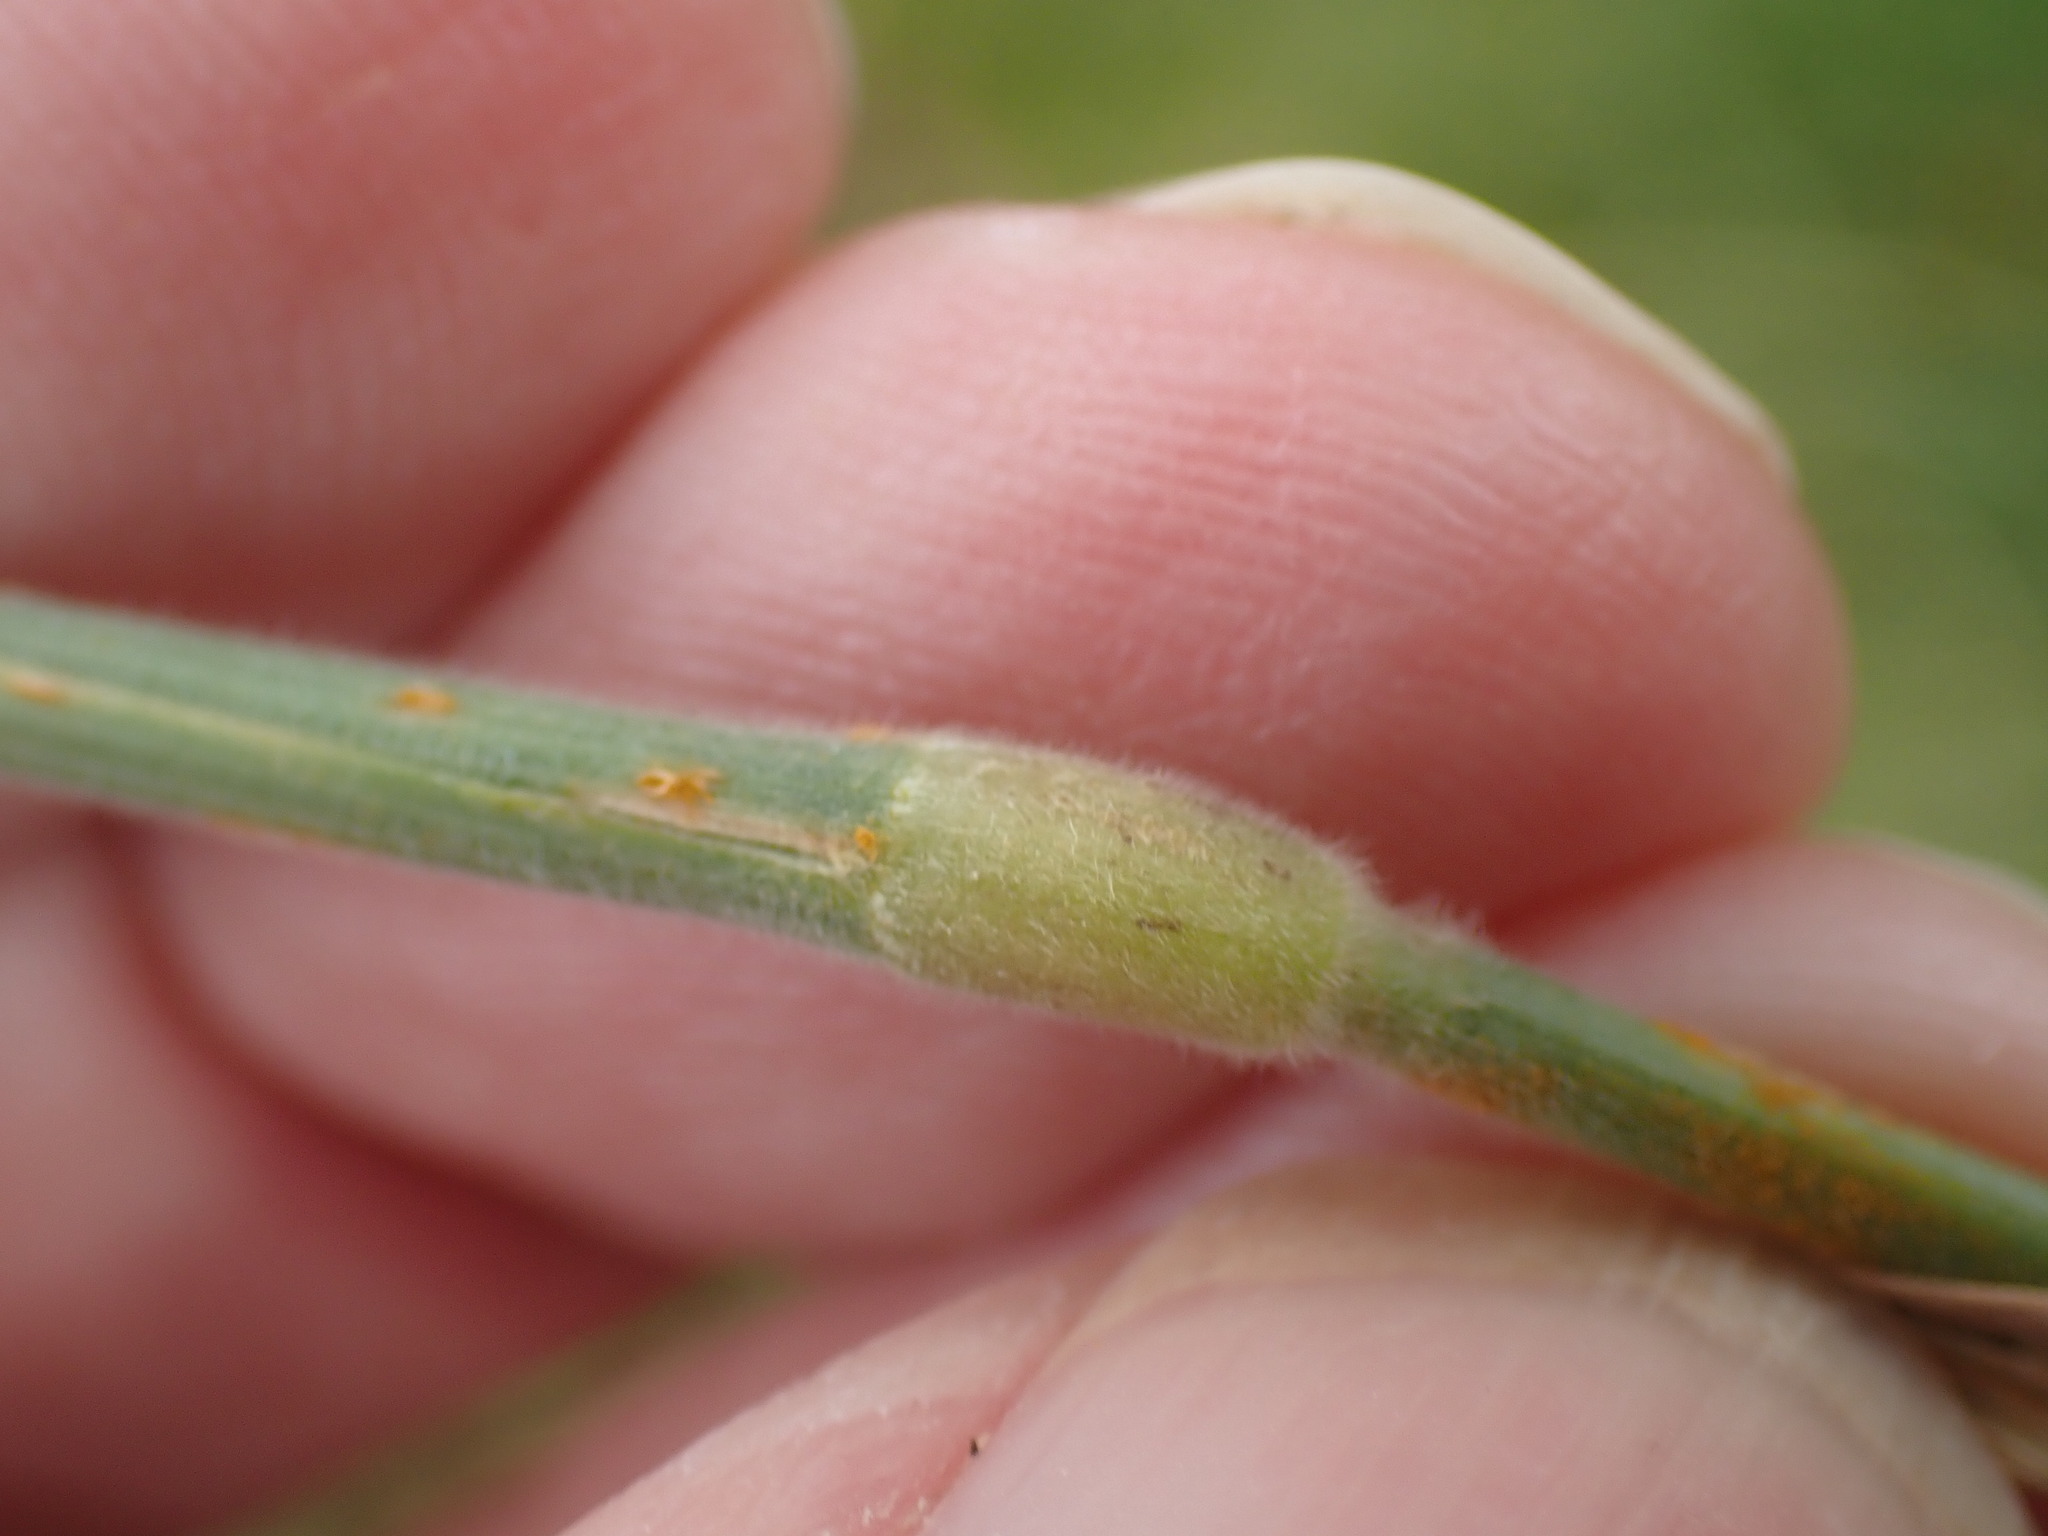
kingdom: Plantae
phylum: Tracheophyta
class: Liliopsida
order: Poales
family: Poaceae
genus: Holcus
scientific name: Holcus lanatus
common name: Yorkshire-fog
